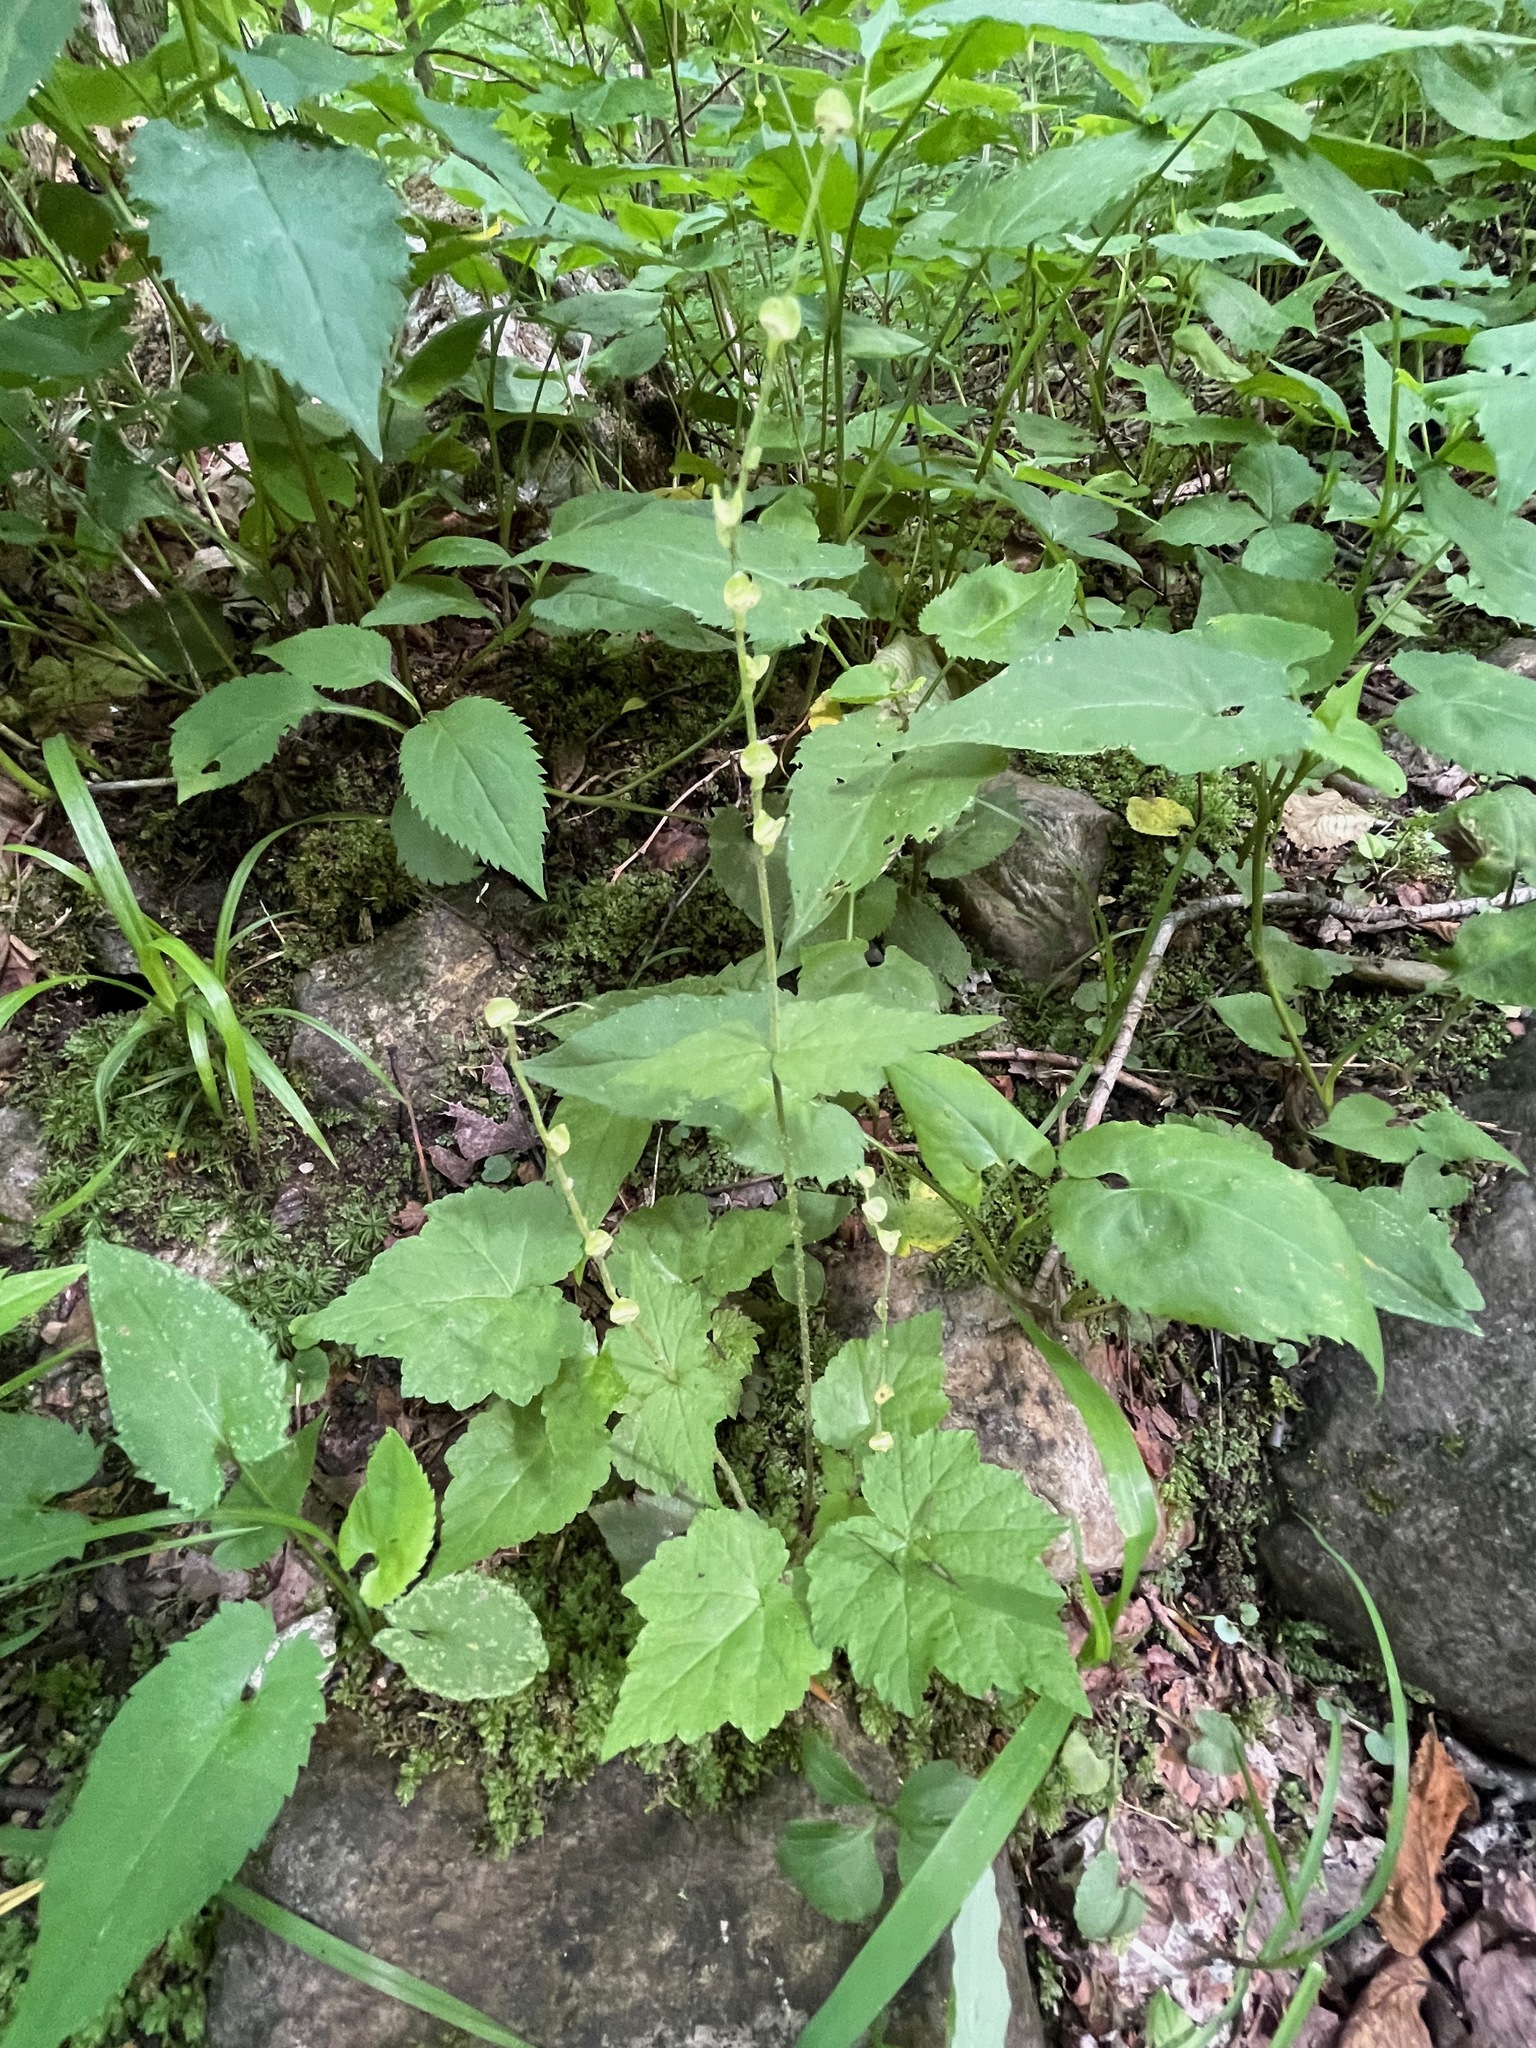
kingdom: Plantae
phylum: Tracheophyta
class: Magnoliopsida
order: Saxifragales
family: Saxifragaceae
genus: Mitella
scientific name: Mitella diphylla
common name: Coolwort
